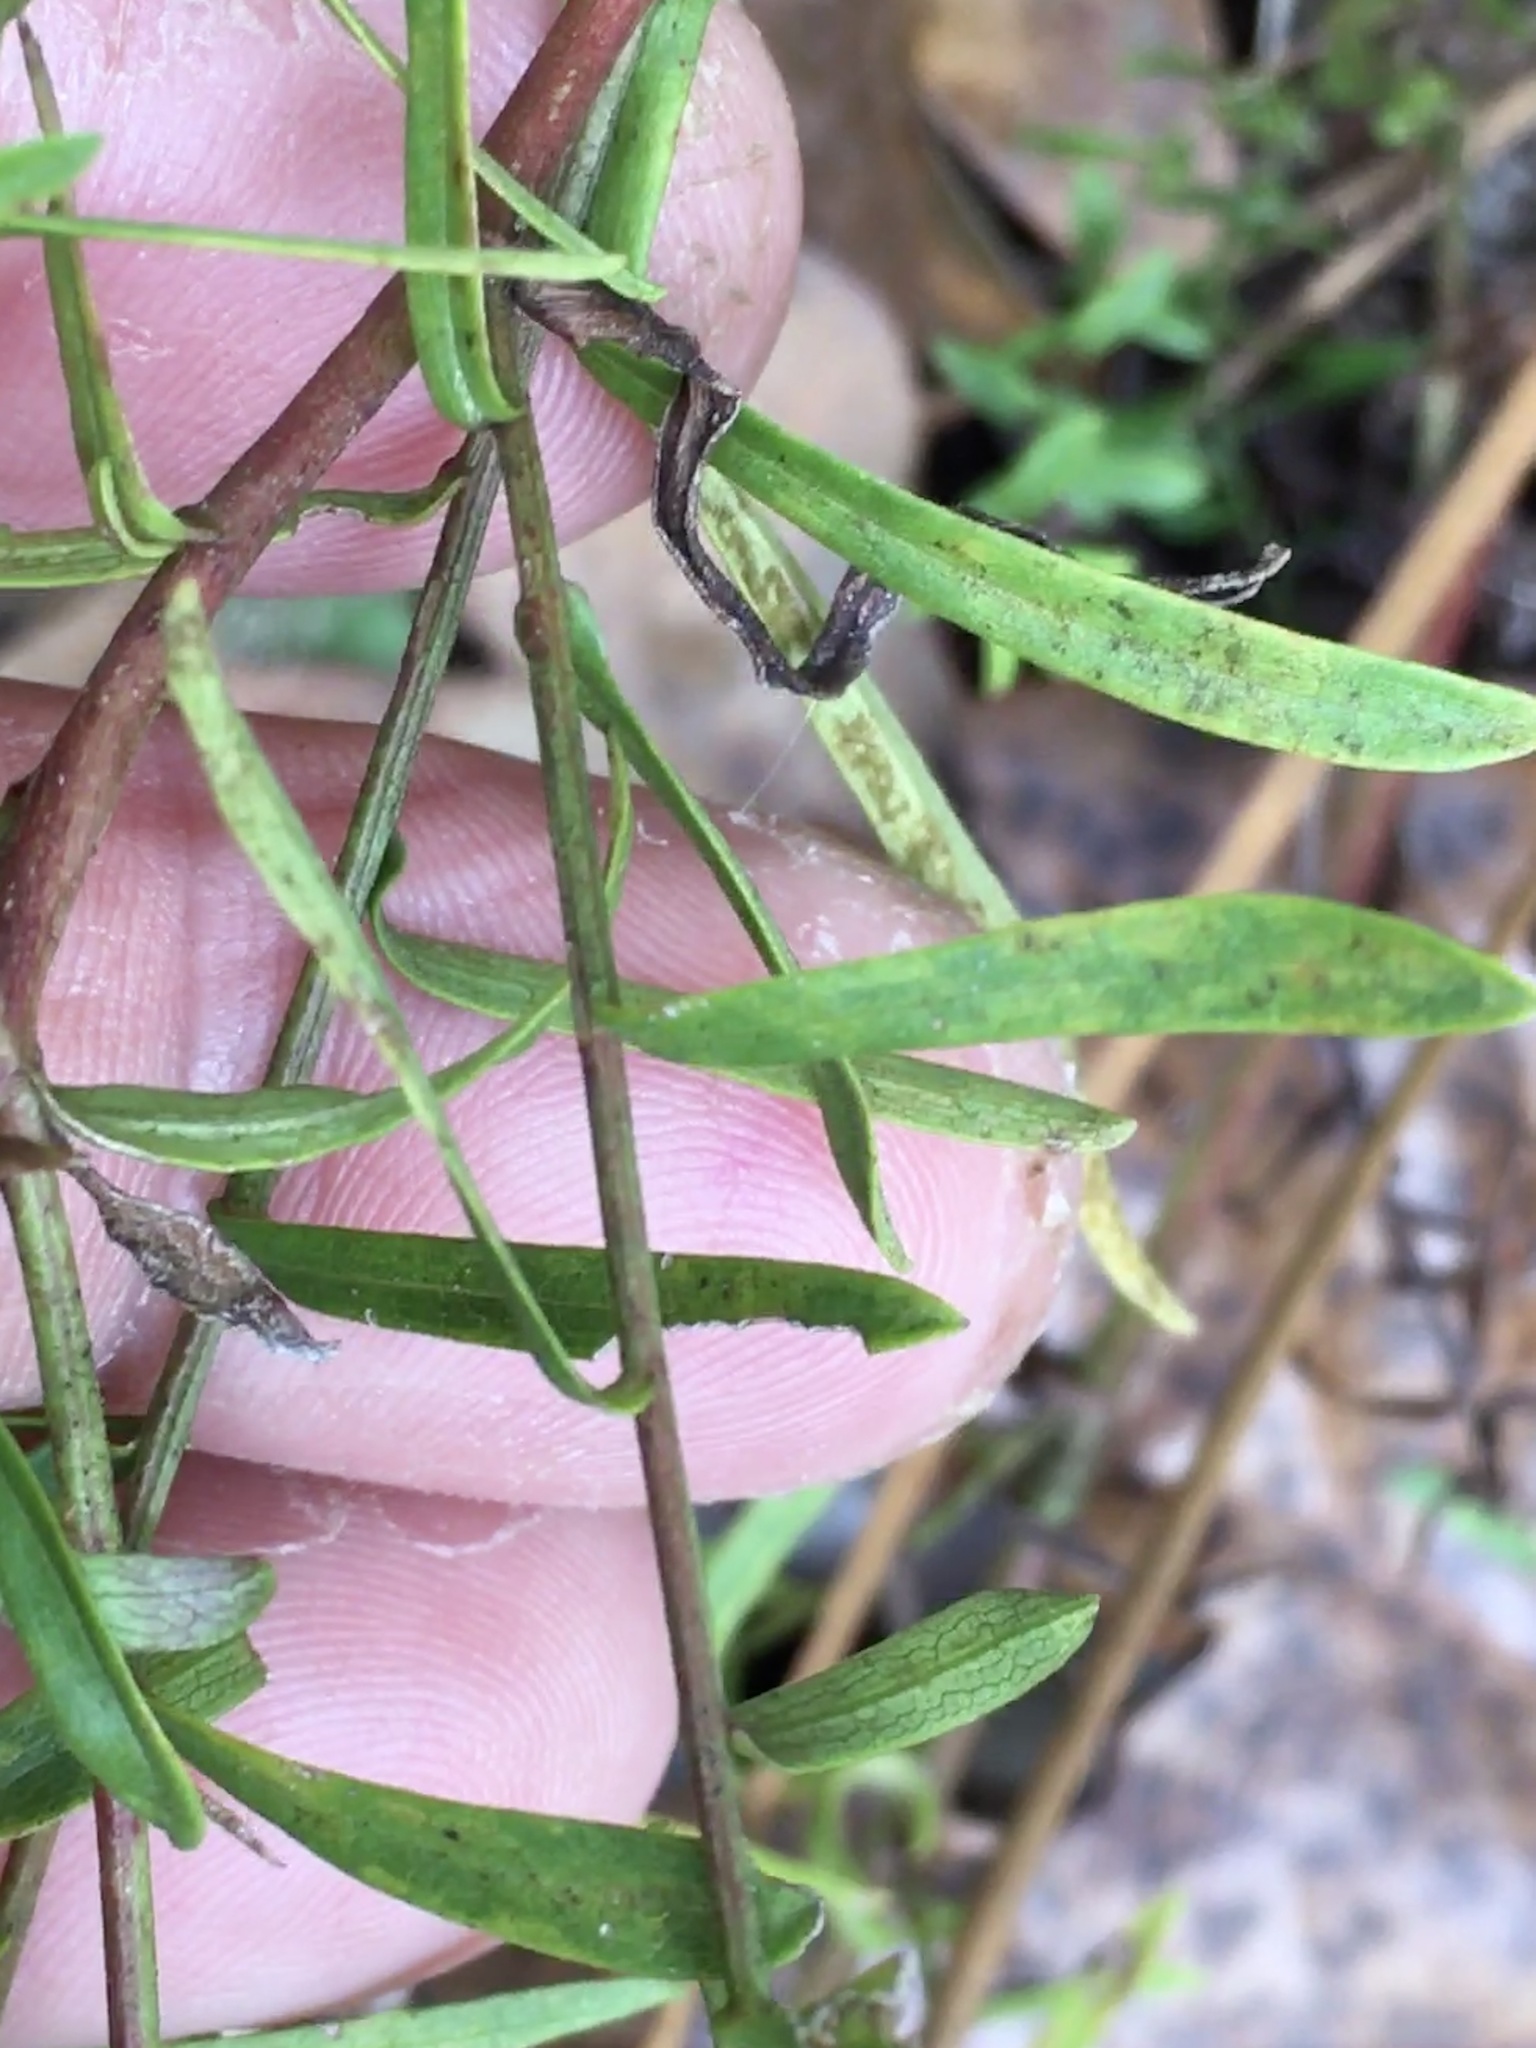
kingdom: Plantae
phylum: Tracheophyta
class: Magnoliopsida
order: Asterales
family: Asteraceae
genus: Symphyotrichum
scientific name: Symphyotrichum dumosum
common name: Bushy aster
